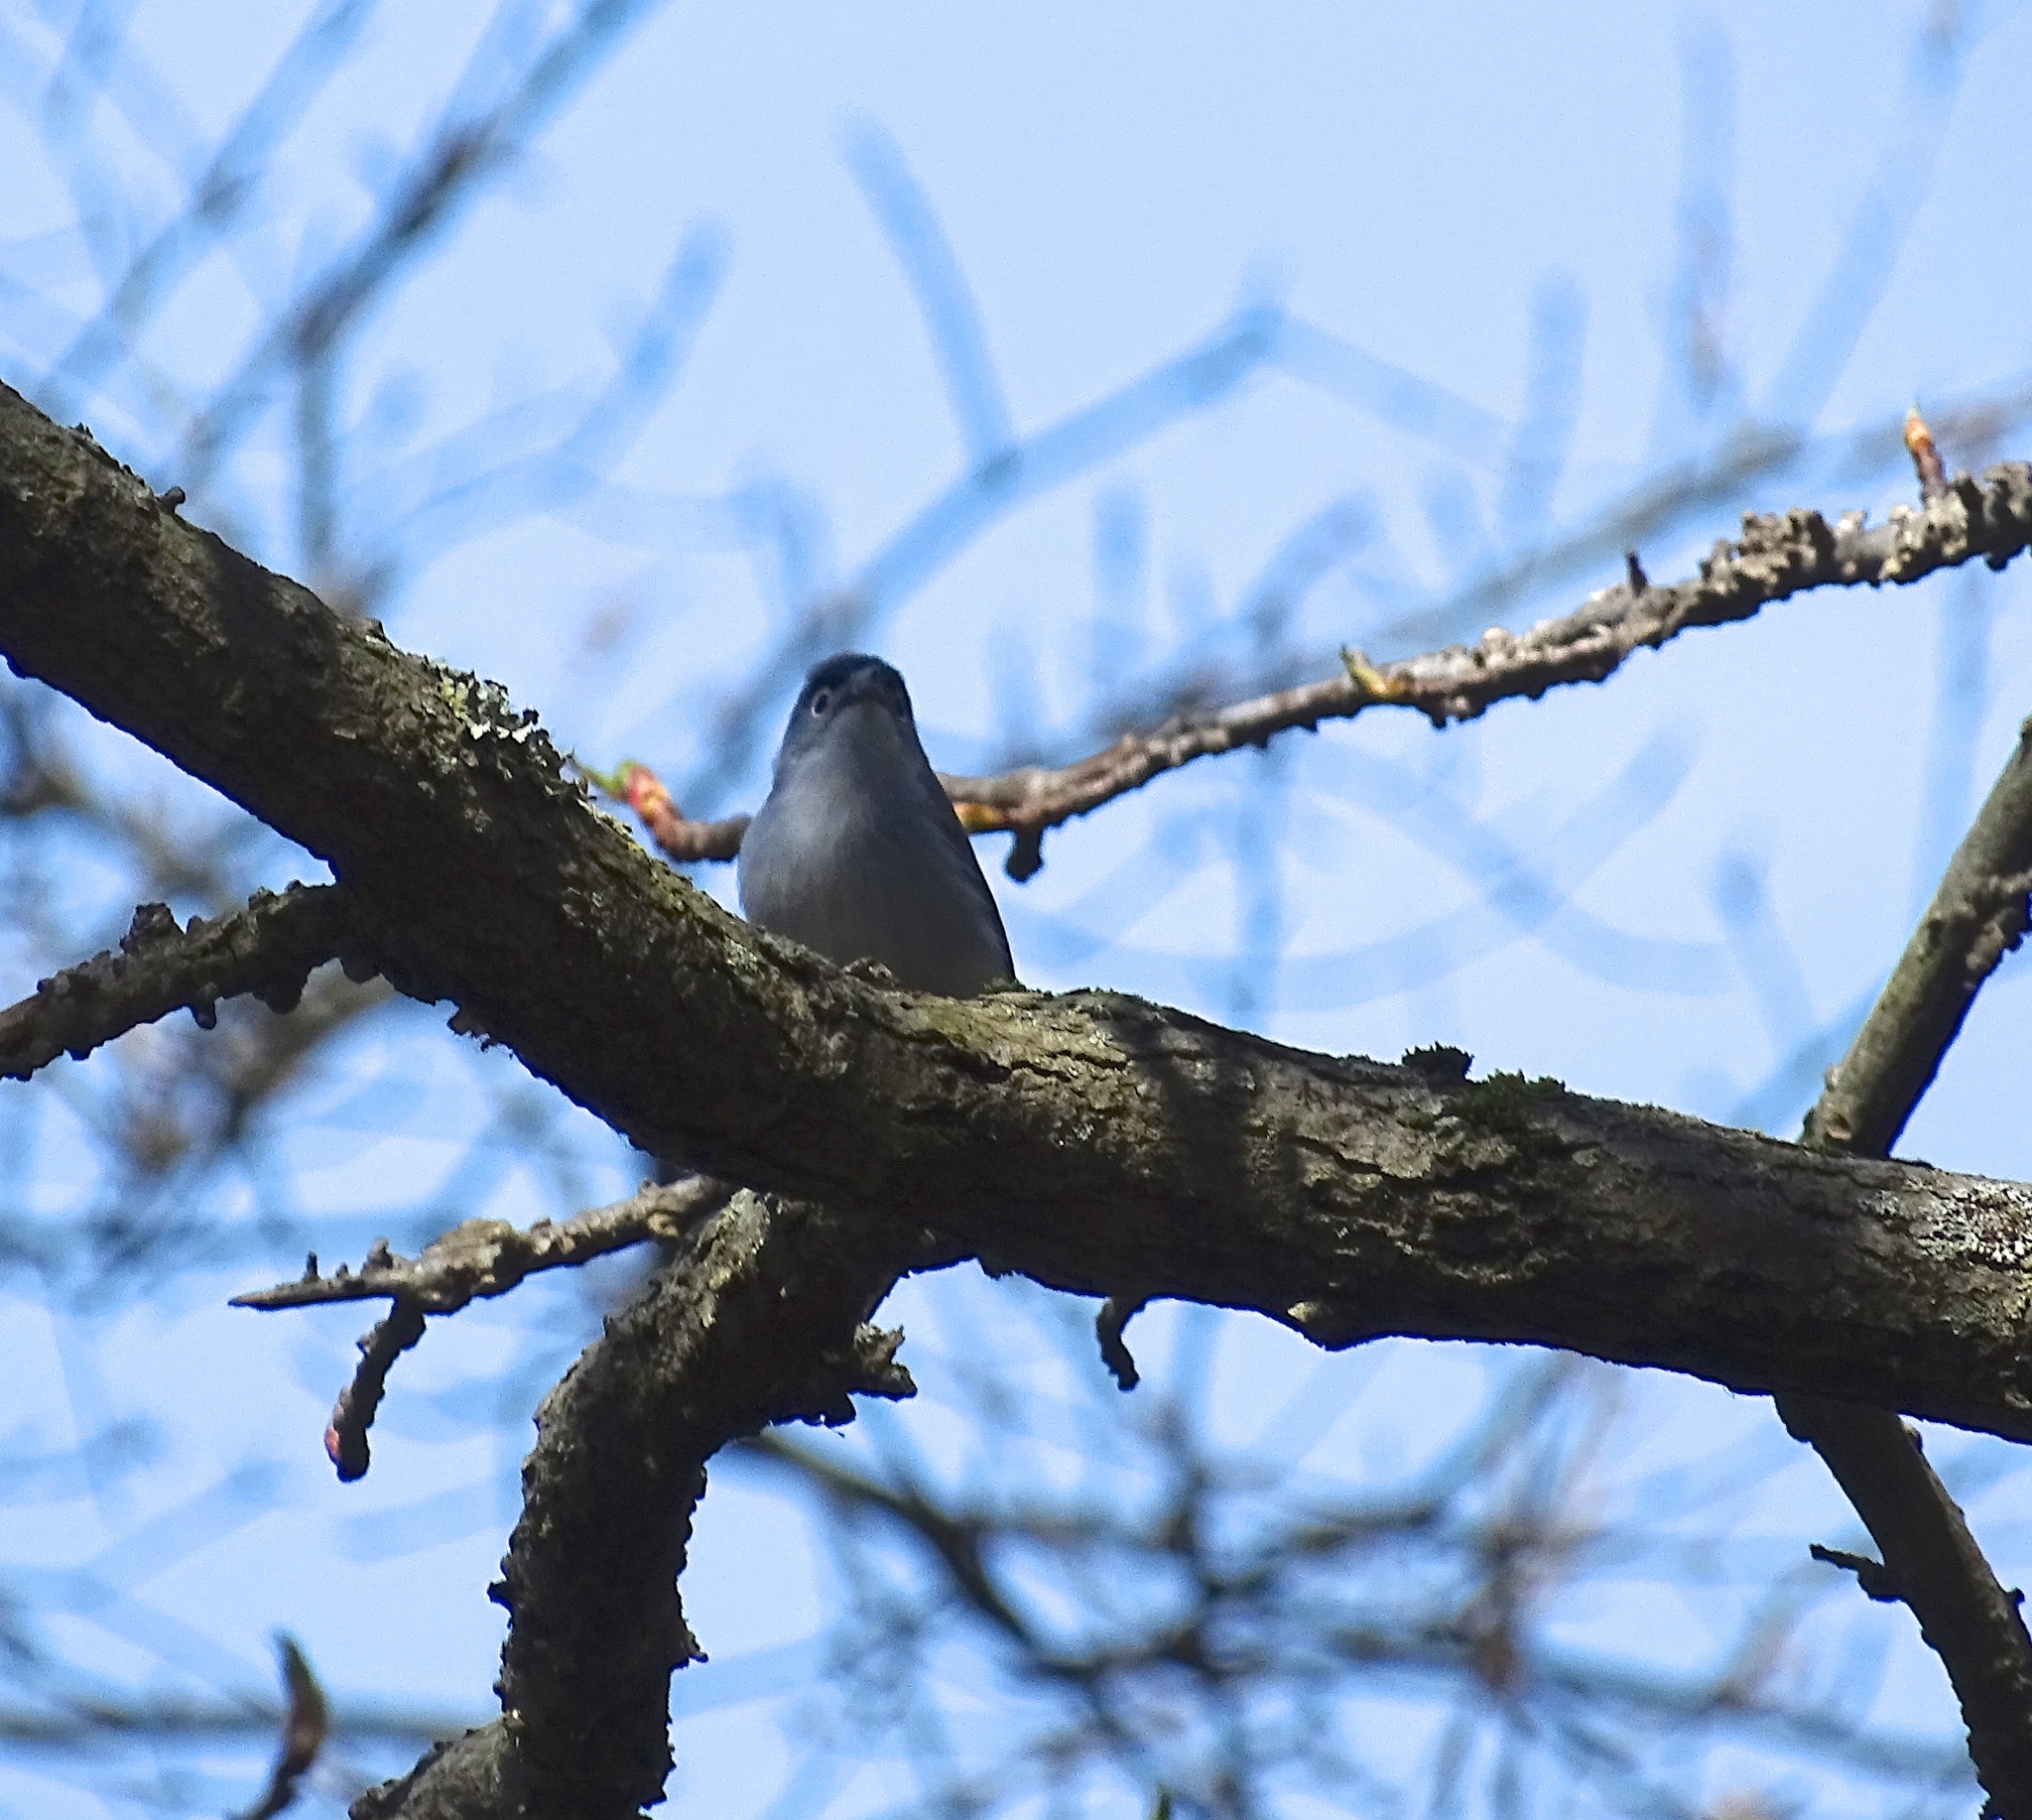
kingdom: Animalia
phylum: Chordata
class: Aves
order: Passeriformes
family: Polioptilidae
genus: Polioptila
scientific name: Polioptila caerulea
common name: Blue-gray gnatcatcher
